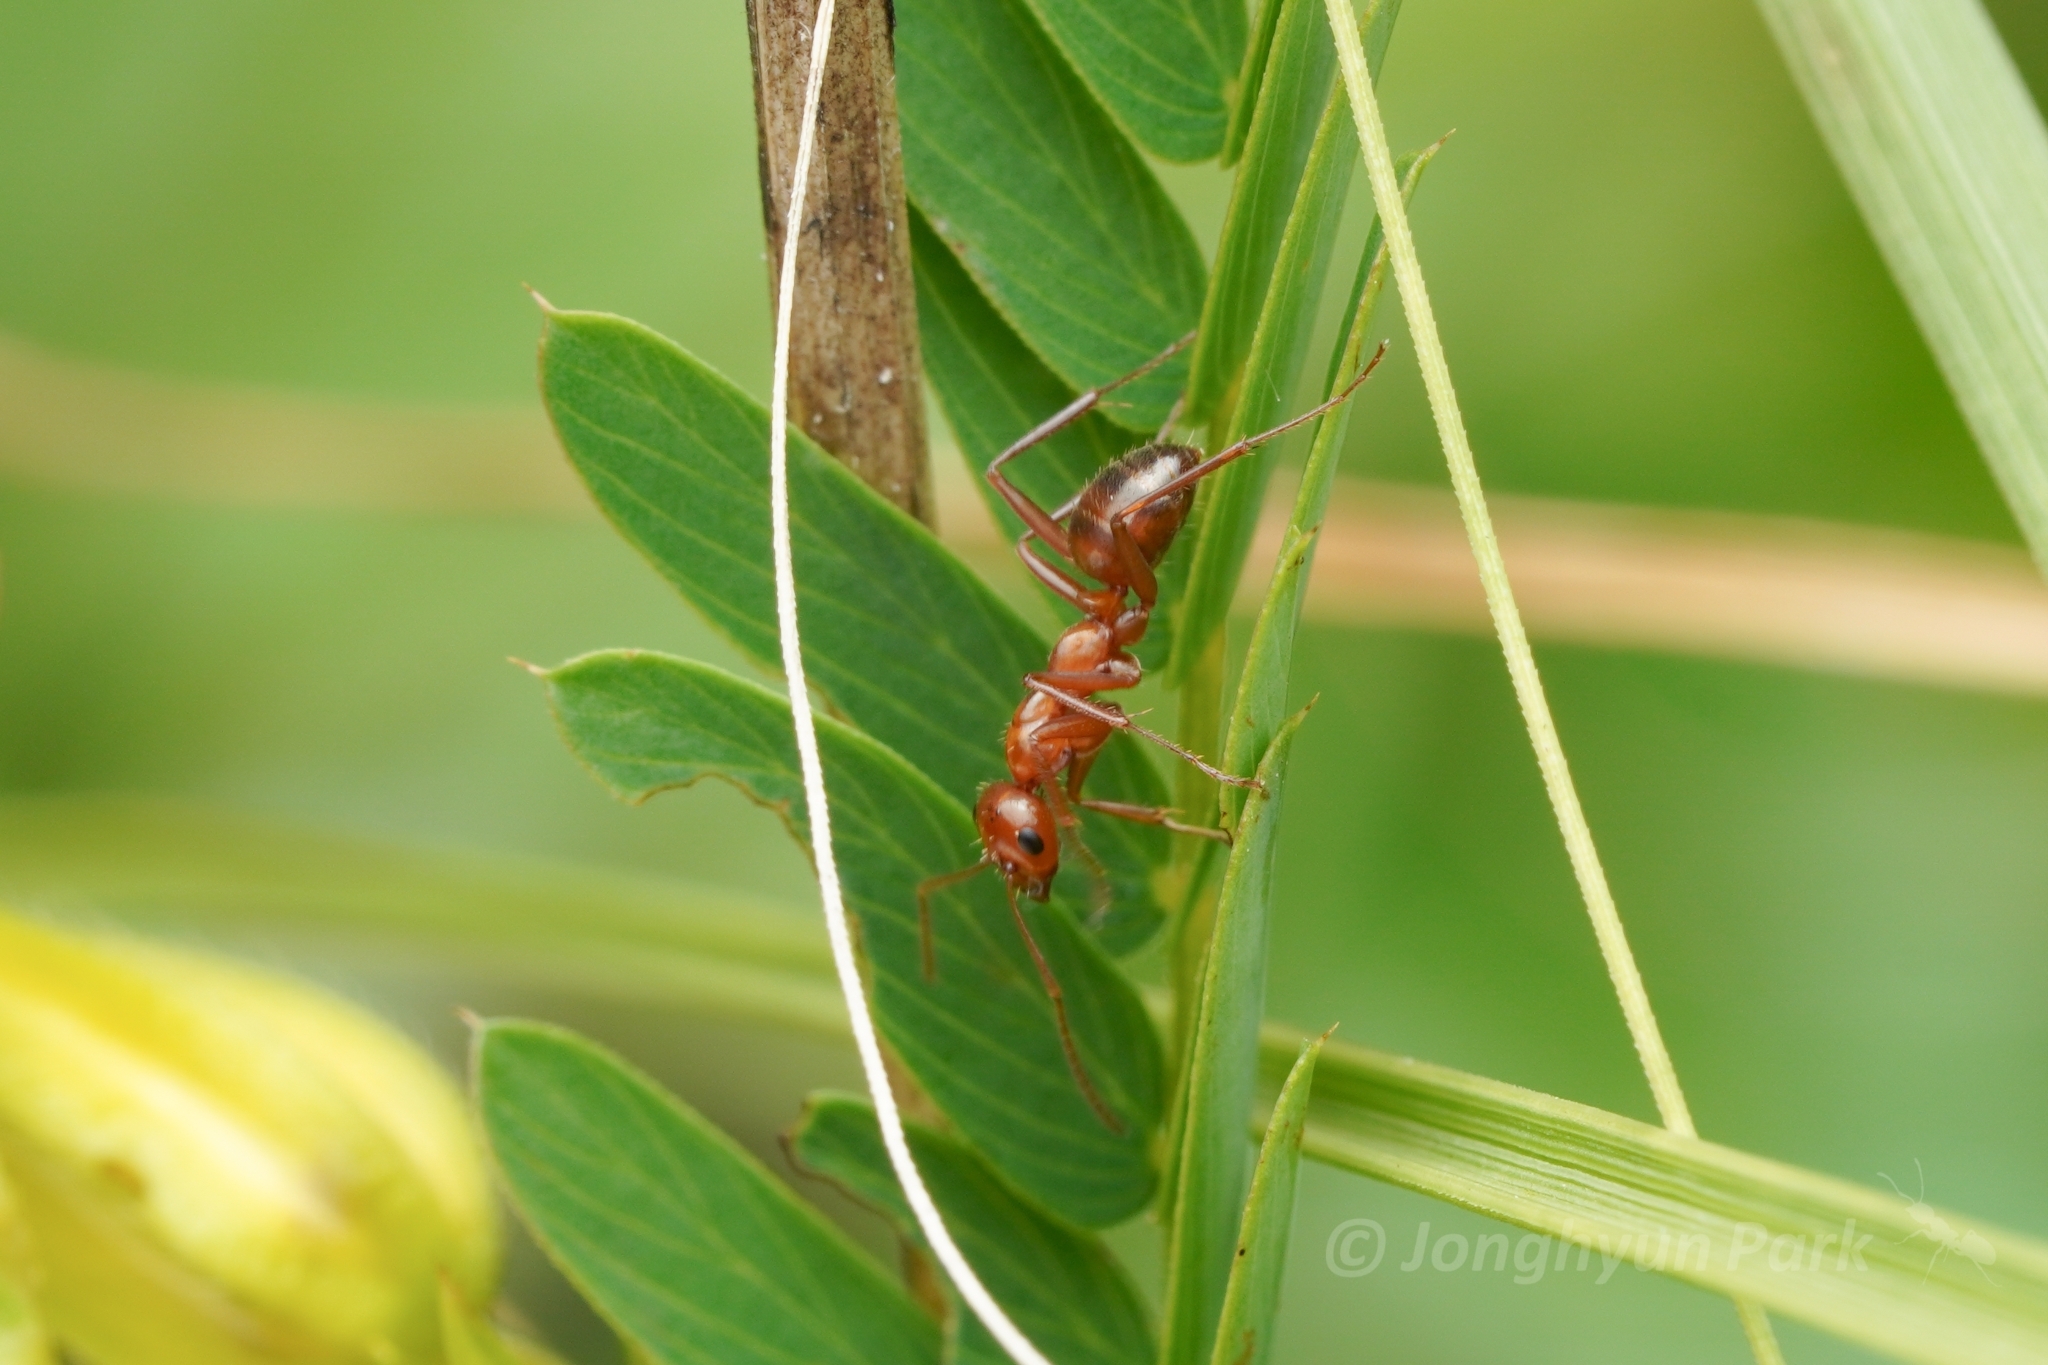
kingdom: Animalia
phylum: Arthropoda
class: Insecta
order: Hymenoptera
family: Formicidae
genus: Formica
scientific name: Formica incerta
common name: Uncertain field ant
